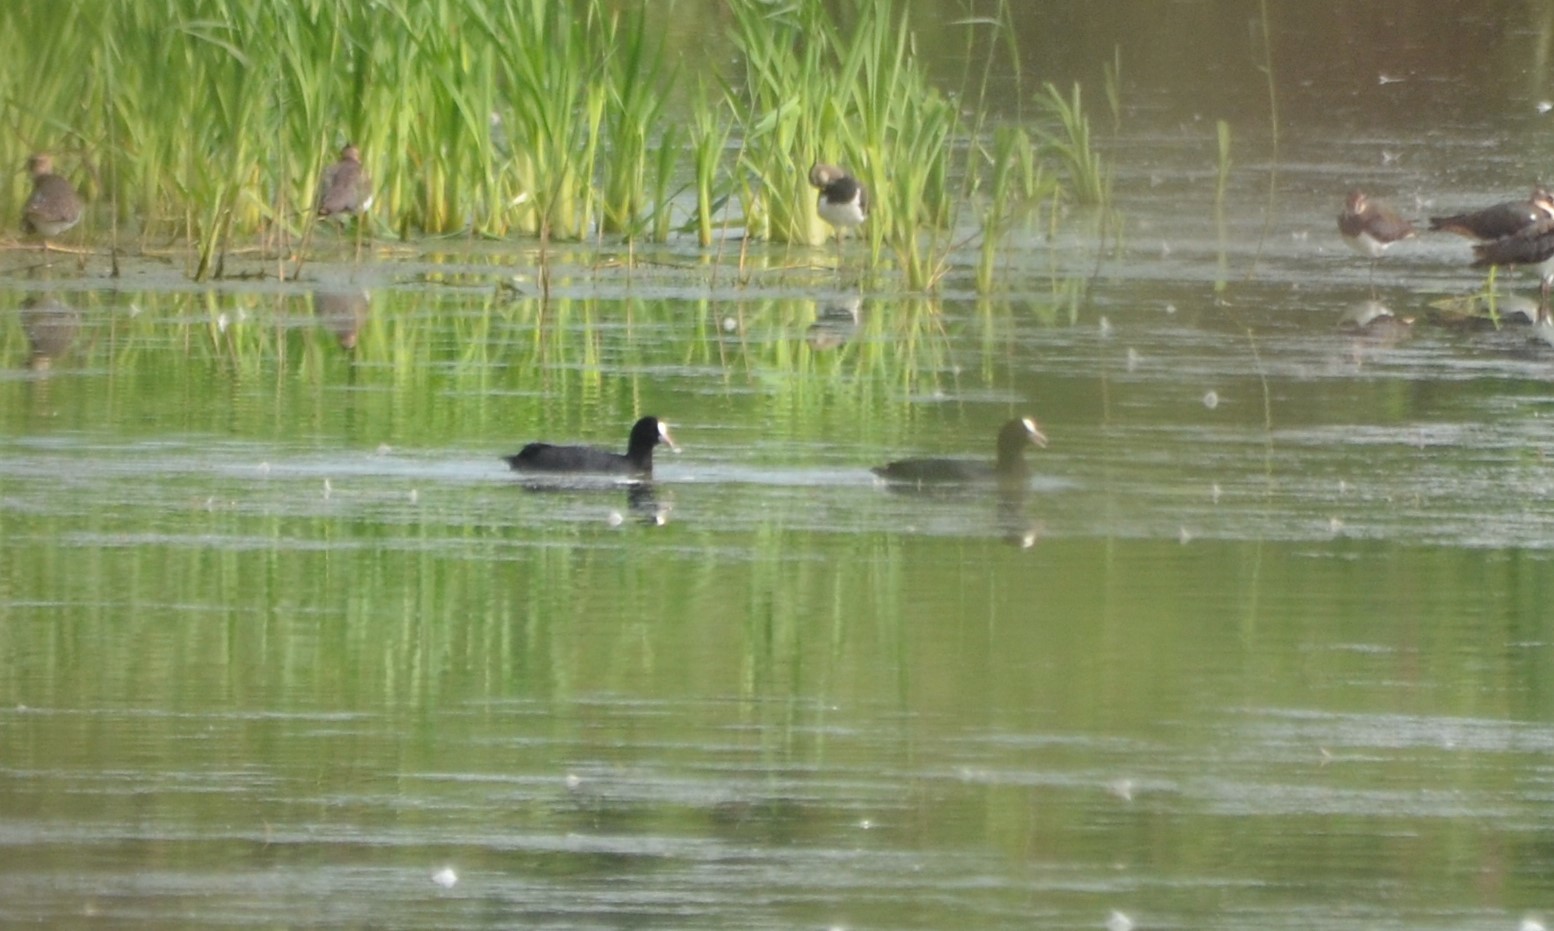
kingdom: Animalia
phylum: Chordata
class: Aves
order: Gruiformes
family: Rallidae
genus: Fulica
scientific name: Fulica atra
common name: Eurasian coot
